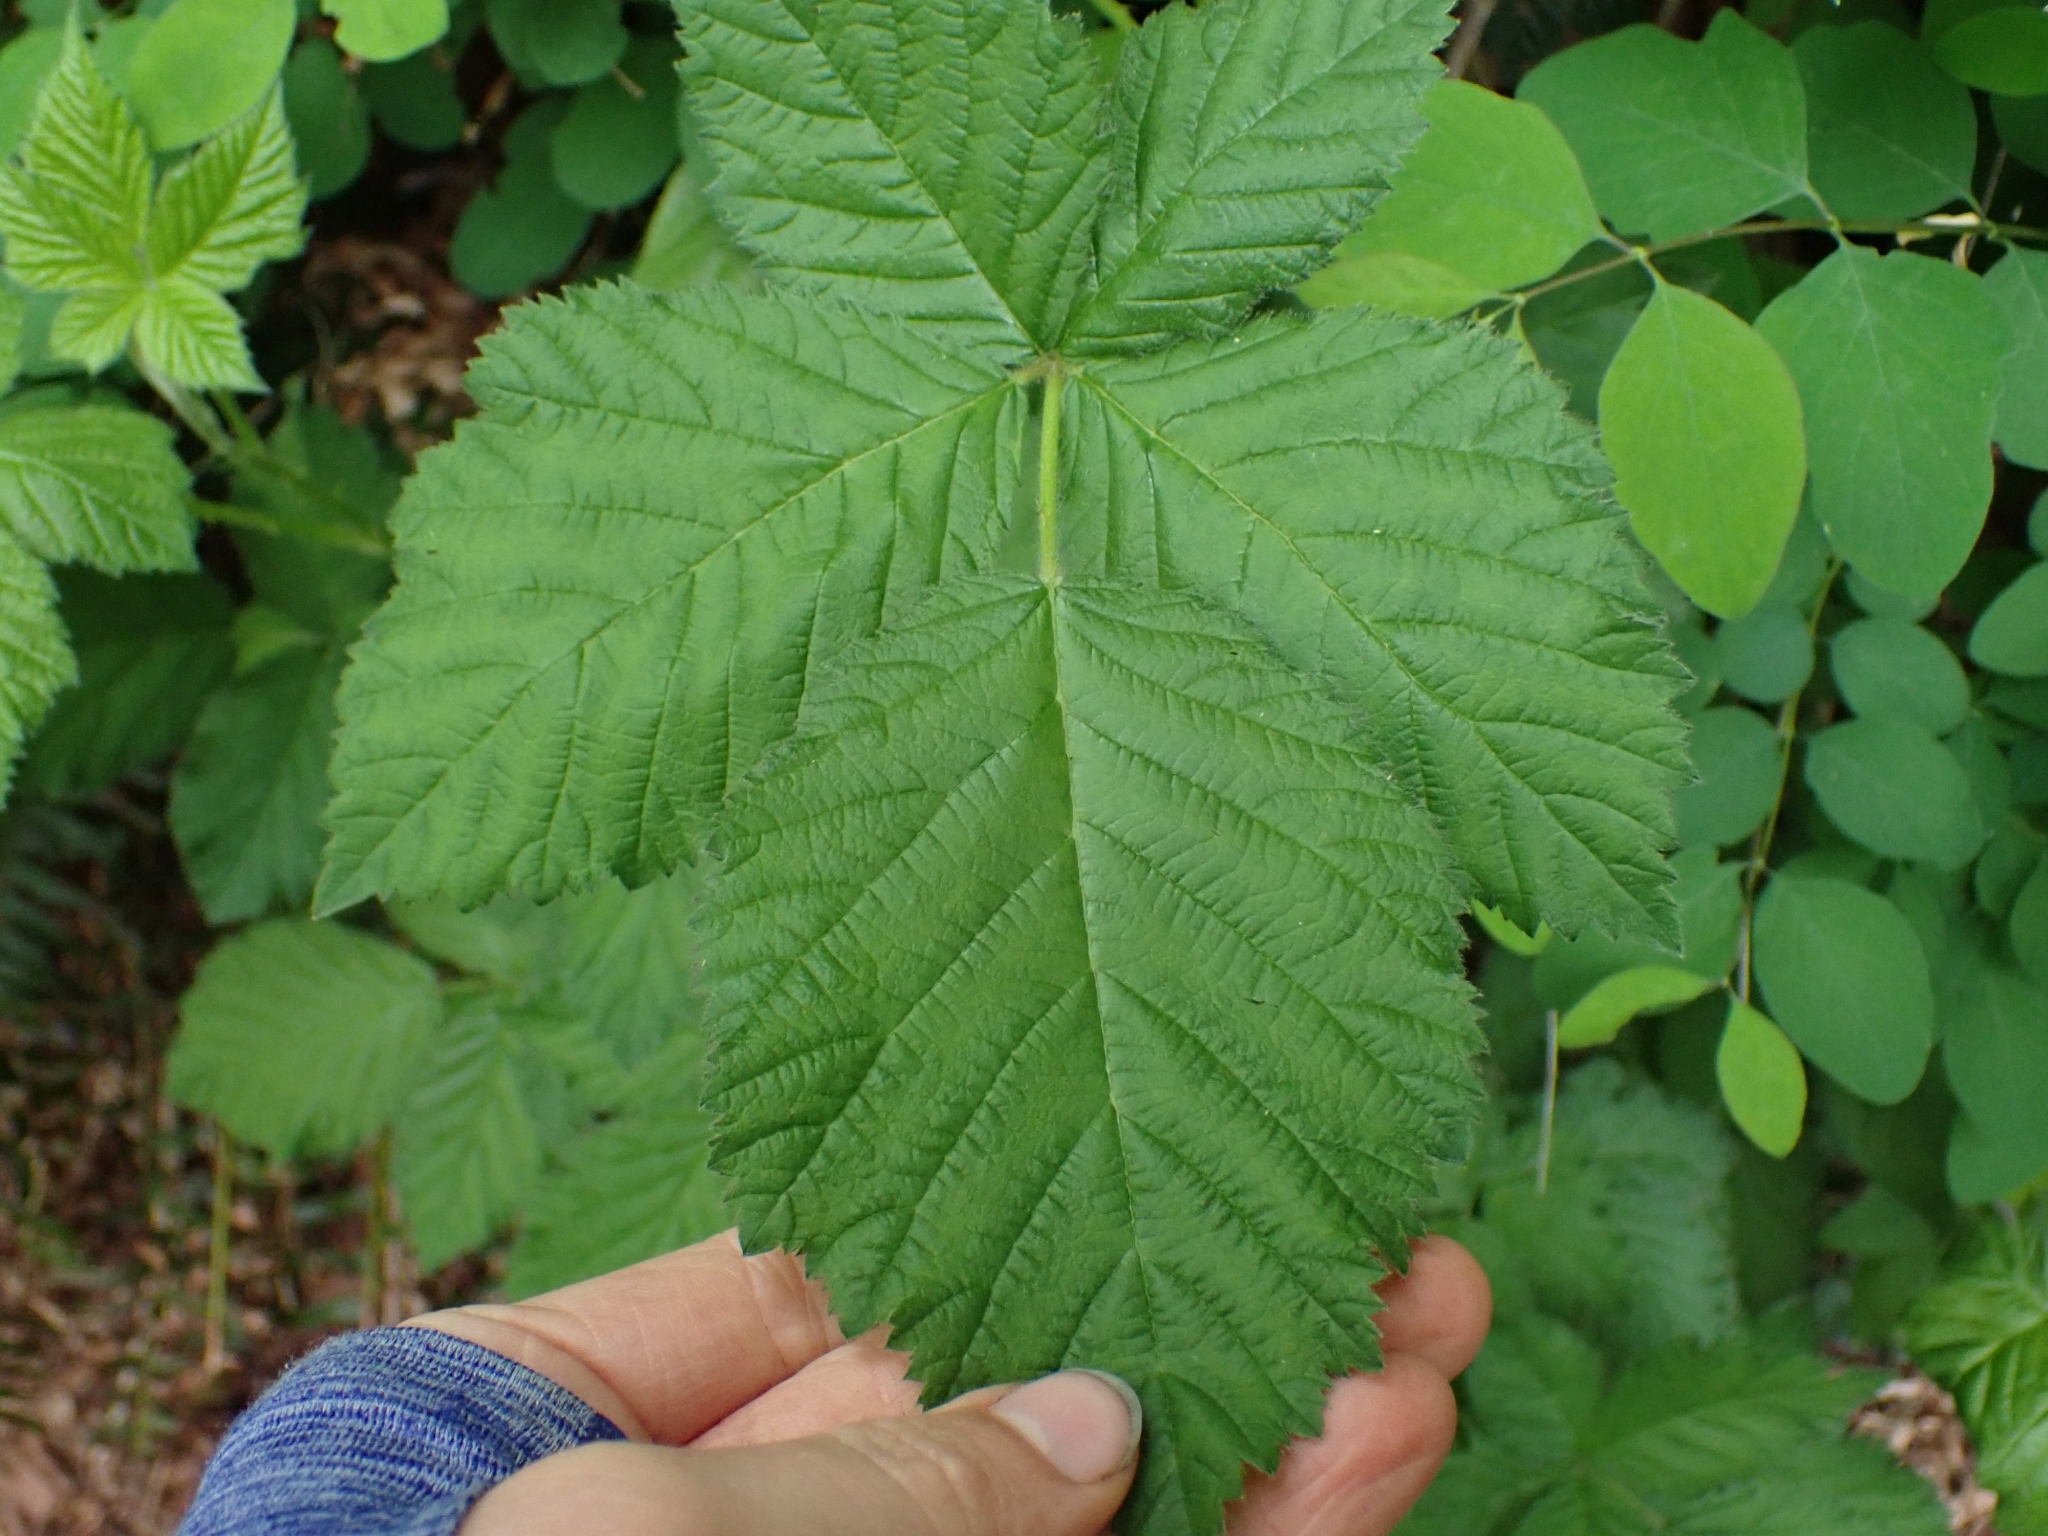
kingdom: Plantae
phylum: Tracheophyta
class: Magnoliopsida
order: Rosales
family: Rosaceae
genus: Rubus
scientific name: Rubus bifrons
